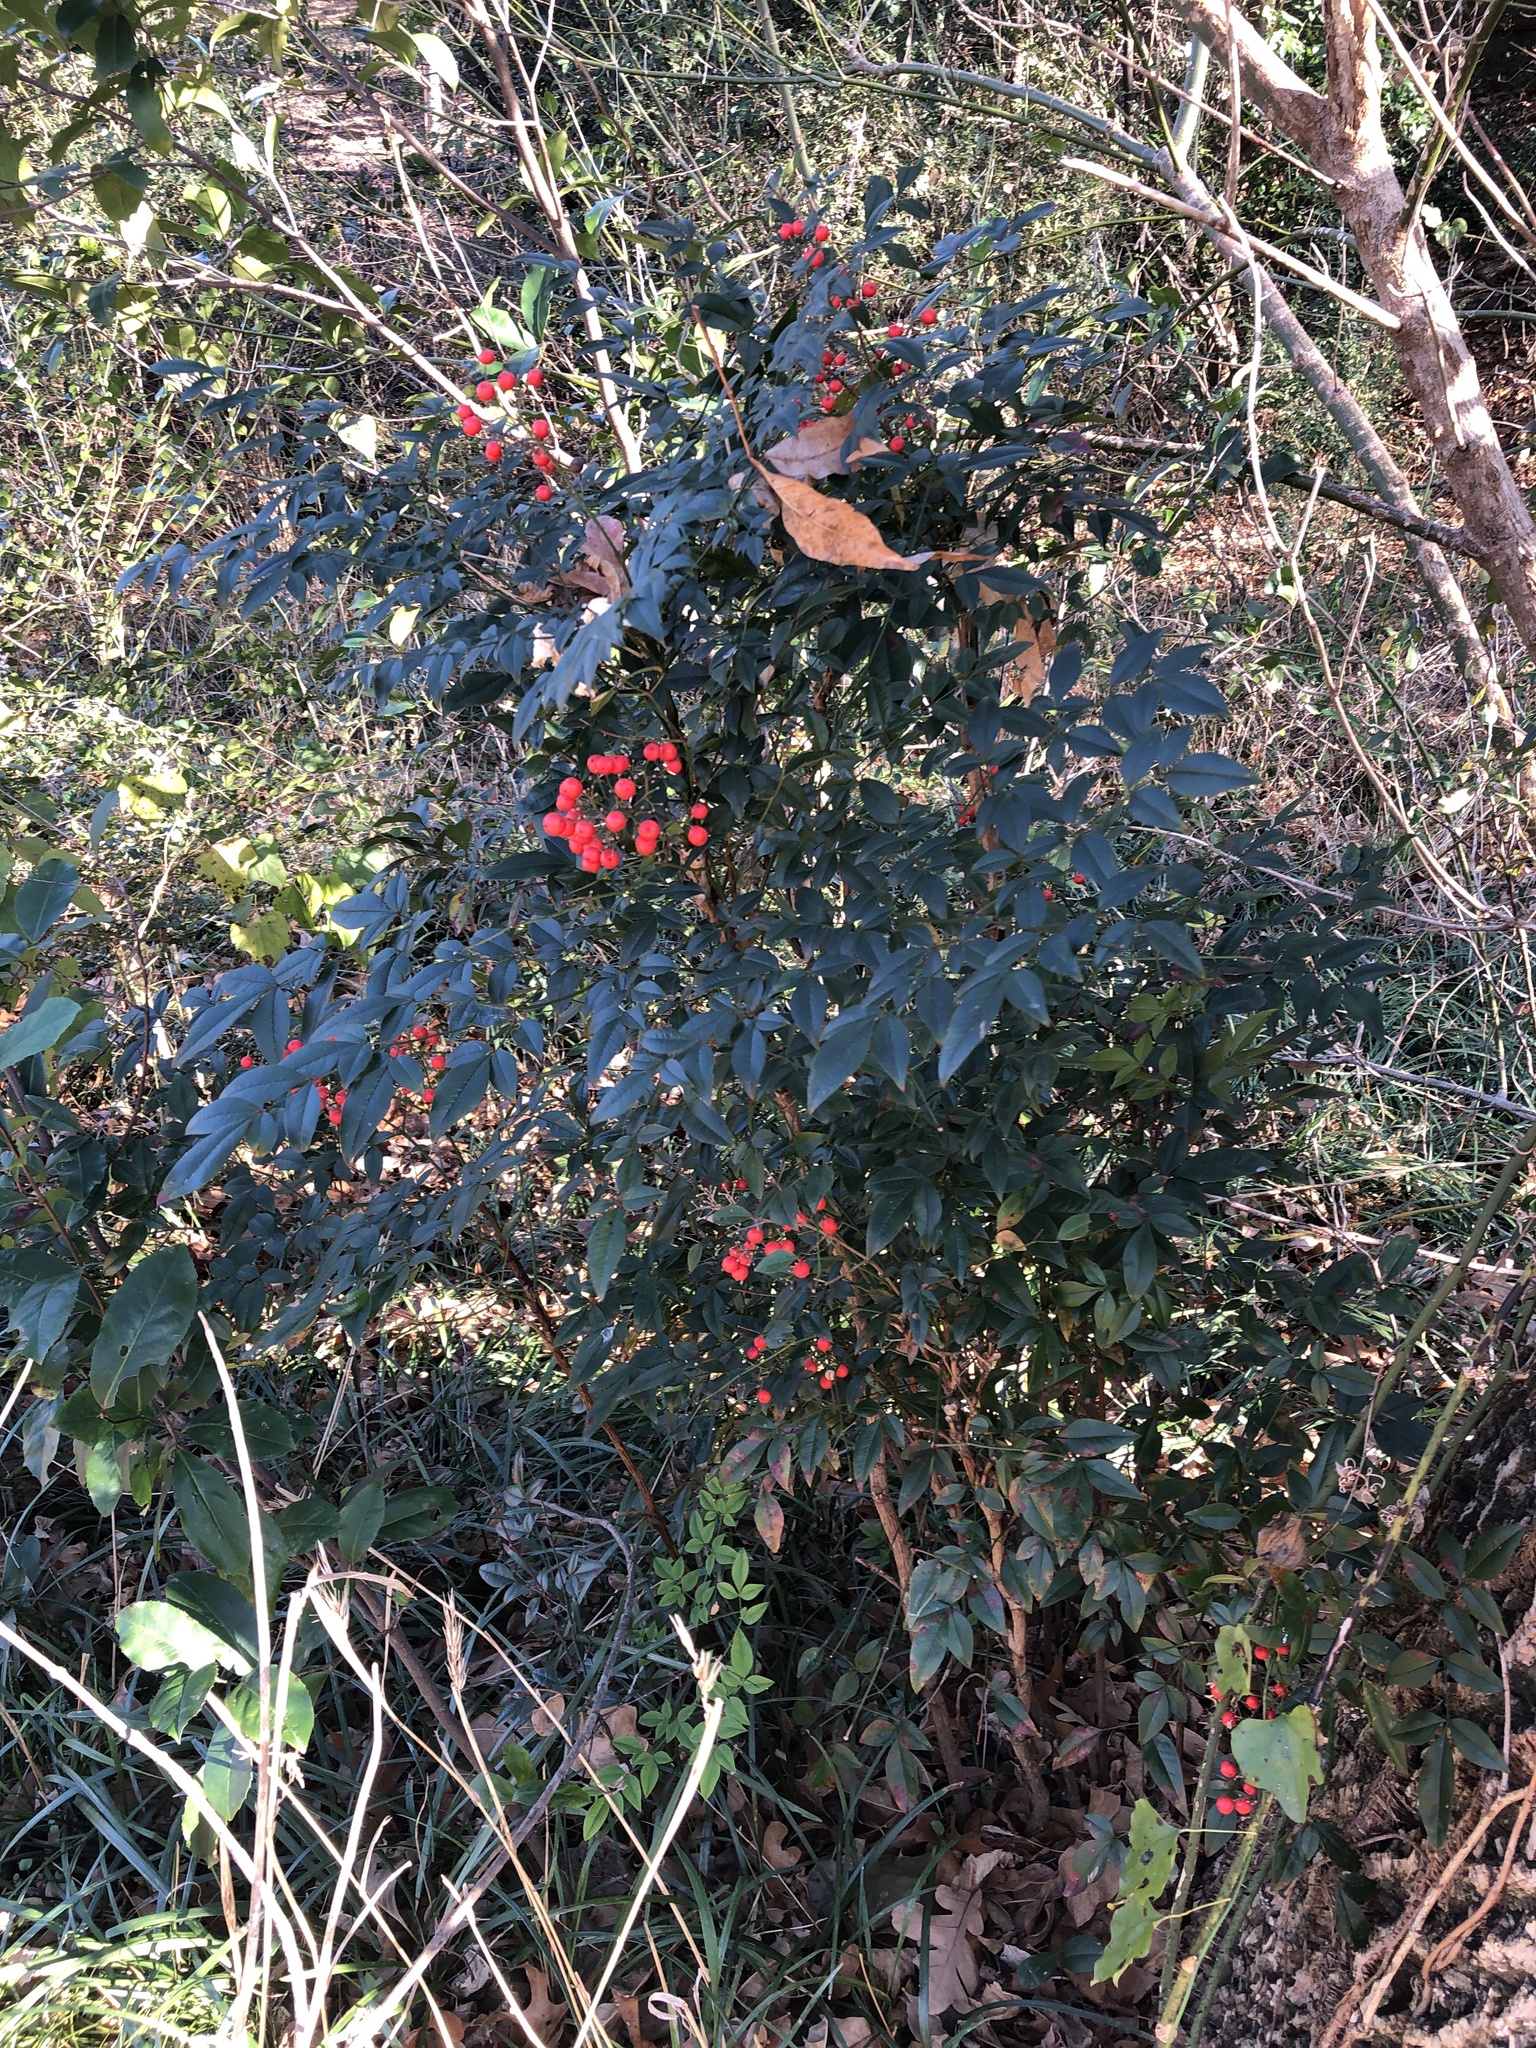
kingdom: Plantae
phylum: Tracheophyta
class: Magnoliopsida
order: Ranunculales
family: Berberidaceae
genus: Nandina
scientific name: Nandina domestica
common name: Sacred bamboo
